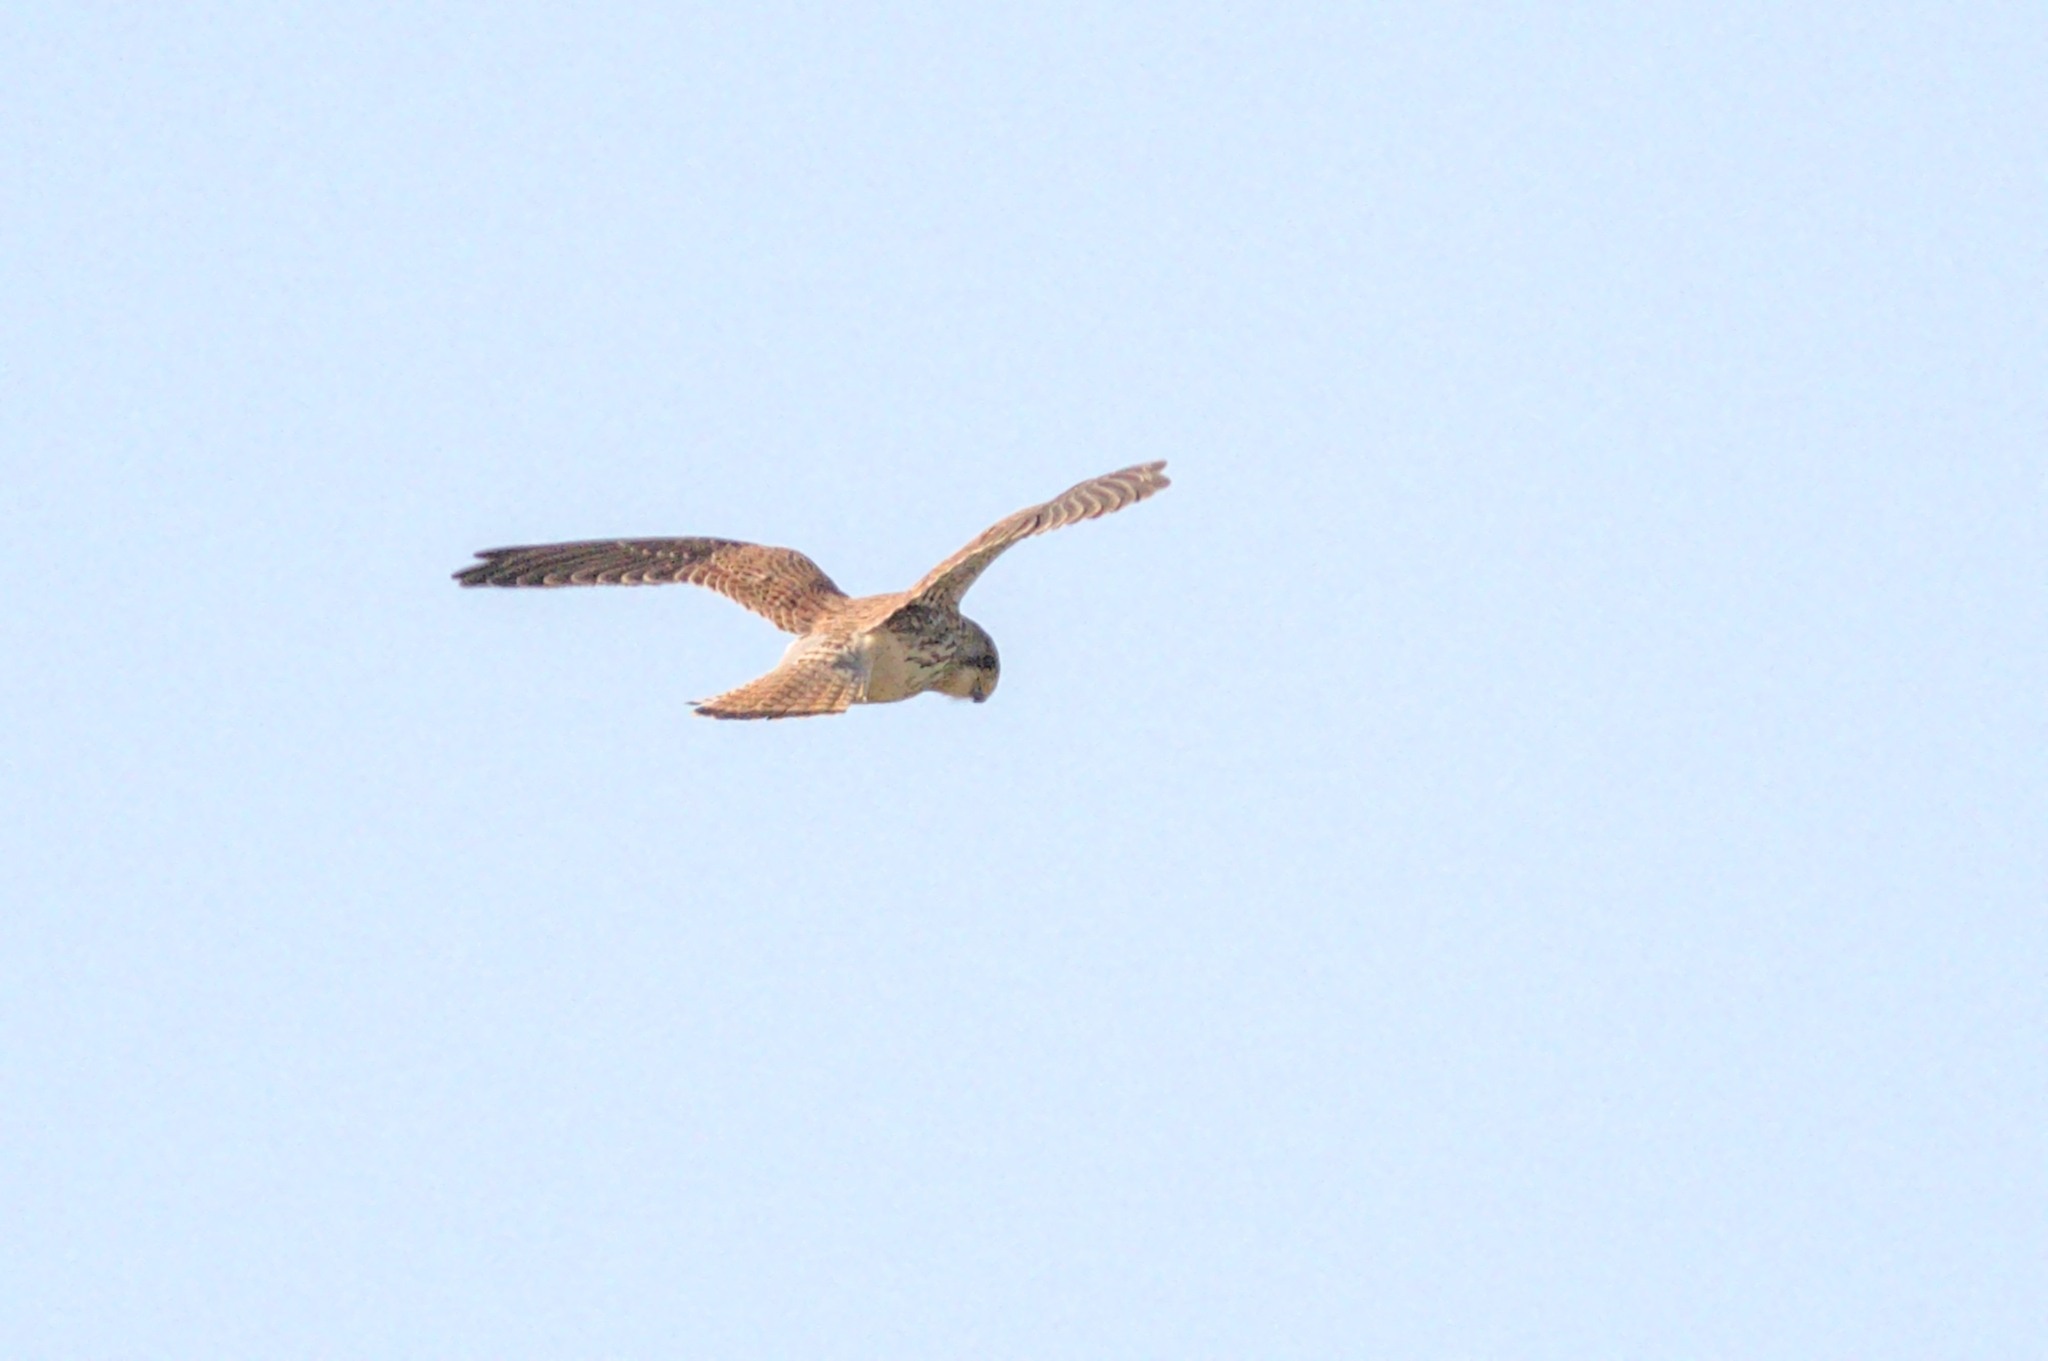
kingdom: Animalia
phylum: Chordata
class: Aves
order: Falconiformes
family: Falconidae
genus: Falco
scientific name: Falco tinnunculus
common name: Common kestrel
